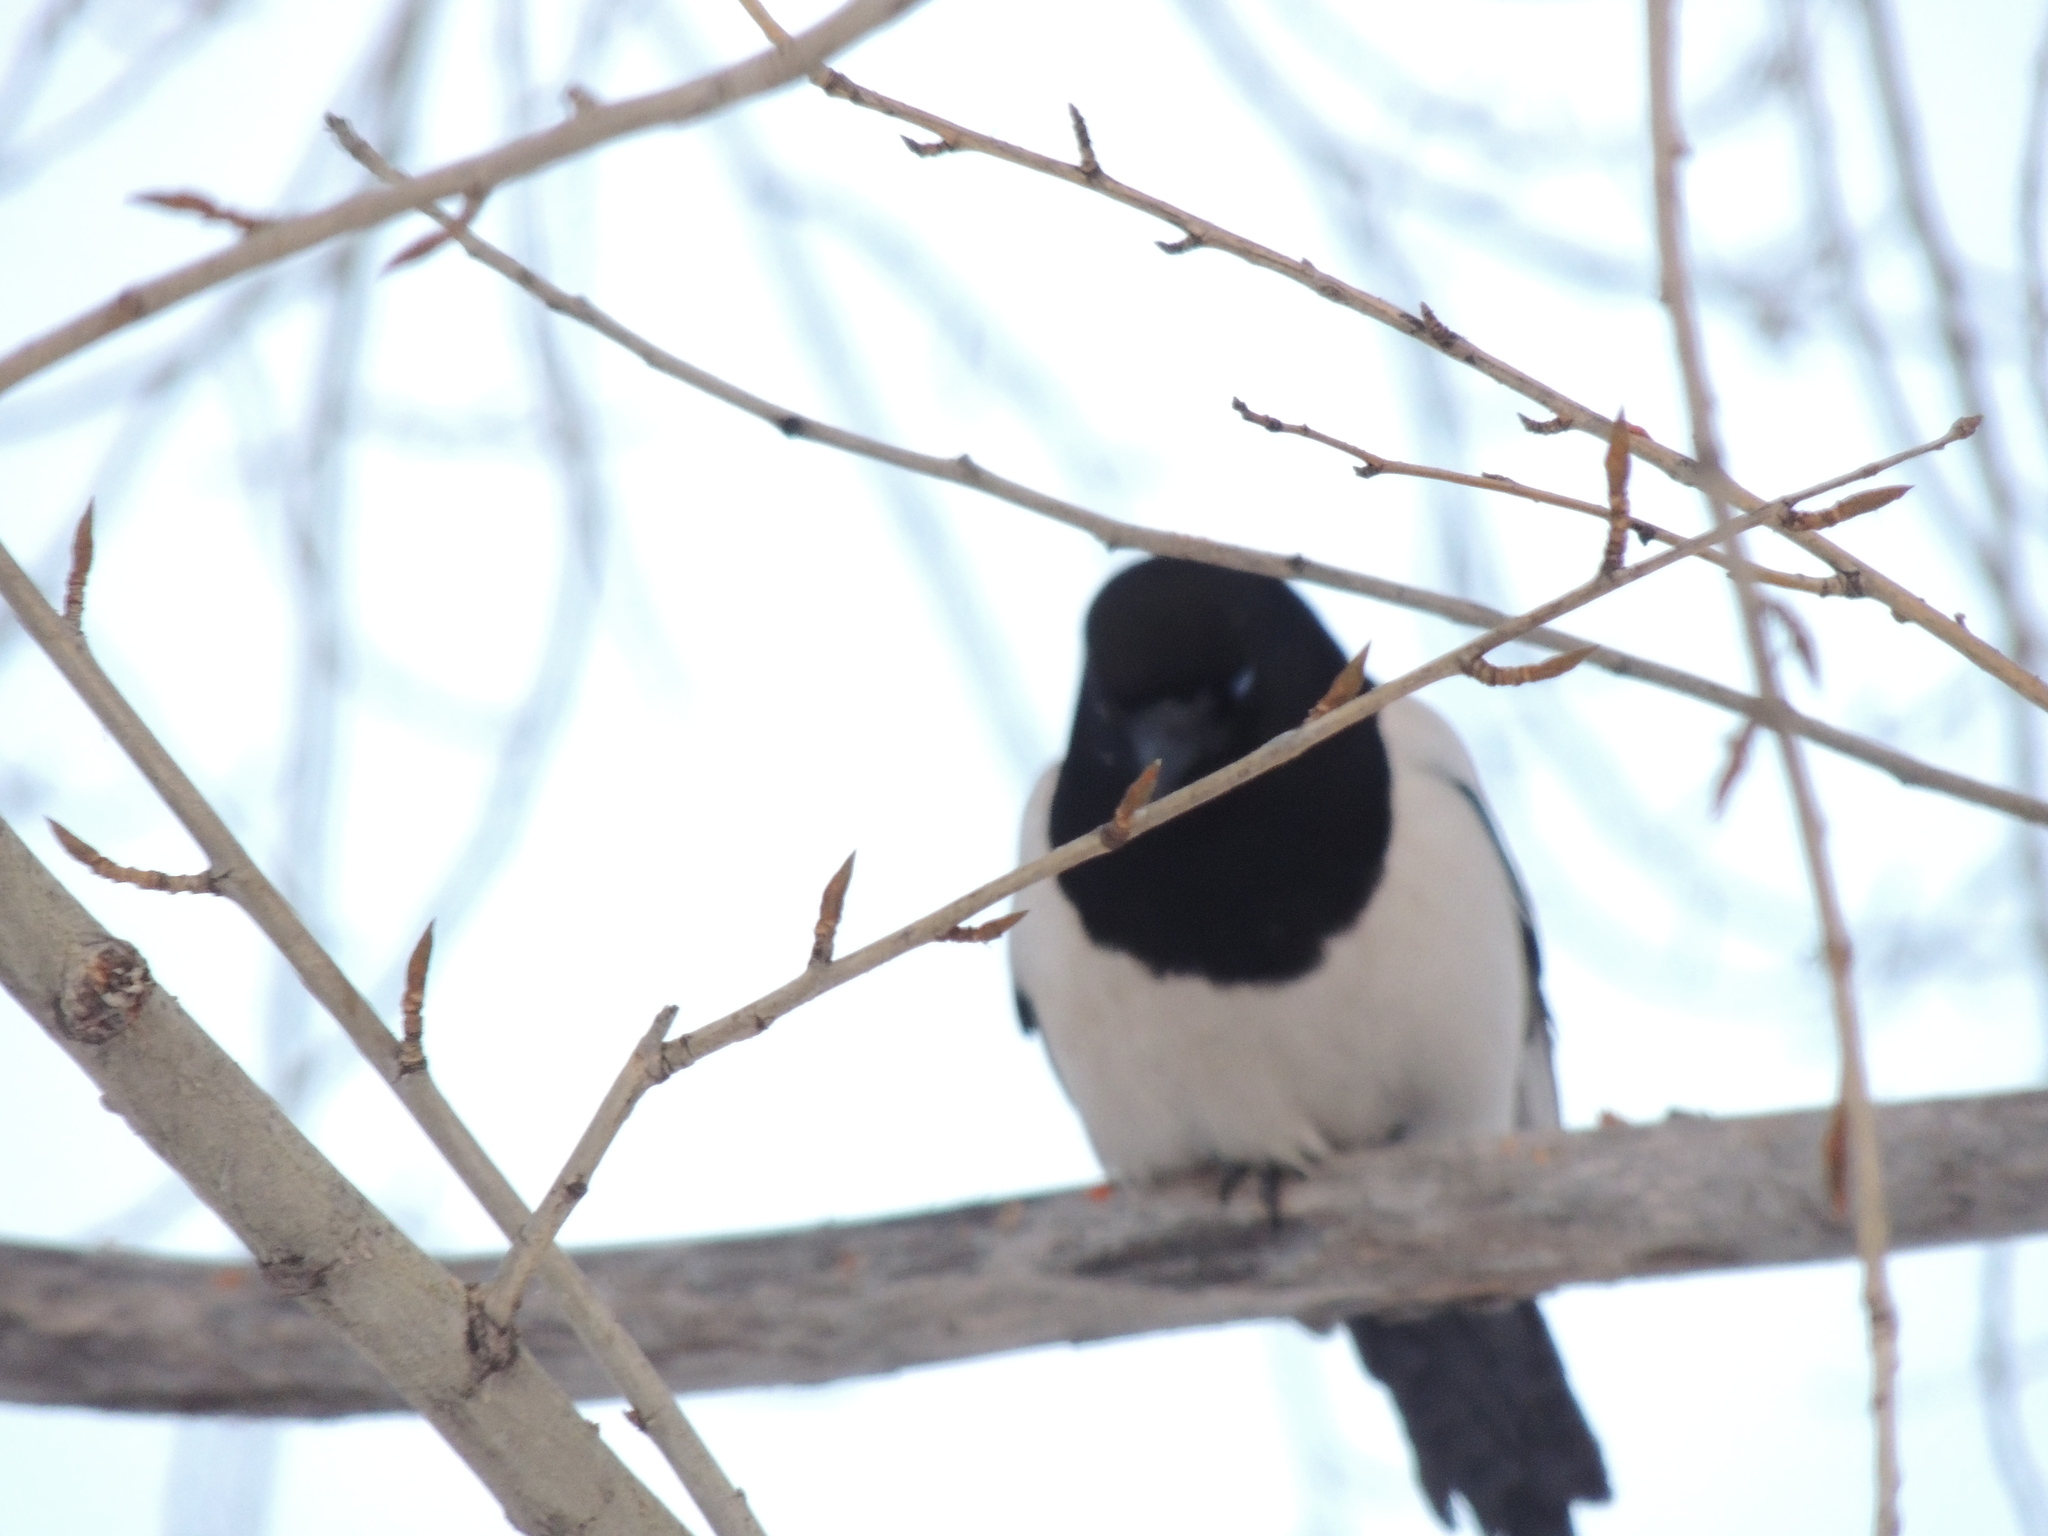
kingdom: Animalia
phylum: Chordata
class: Aves
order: Passeriformes
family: Corvidae
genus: Pica
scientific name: Pica pica
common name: Eurasian magpie
